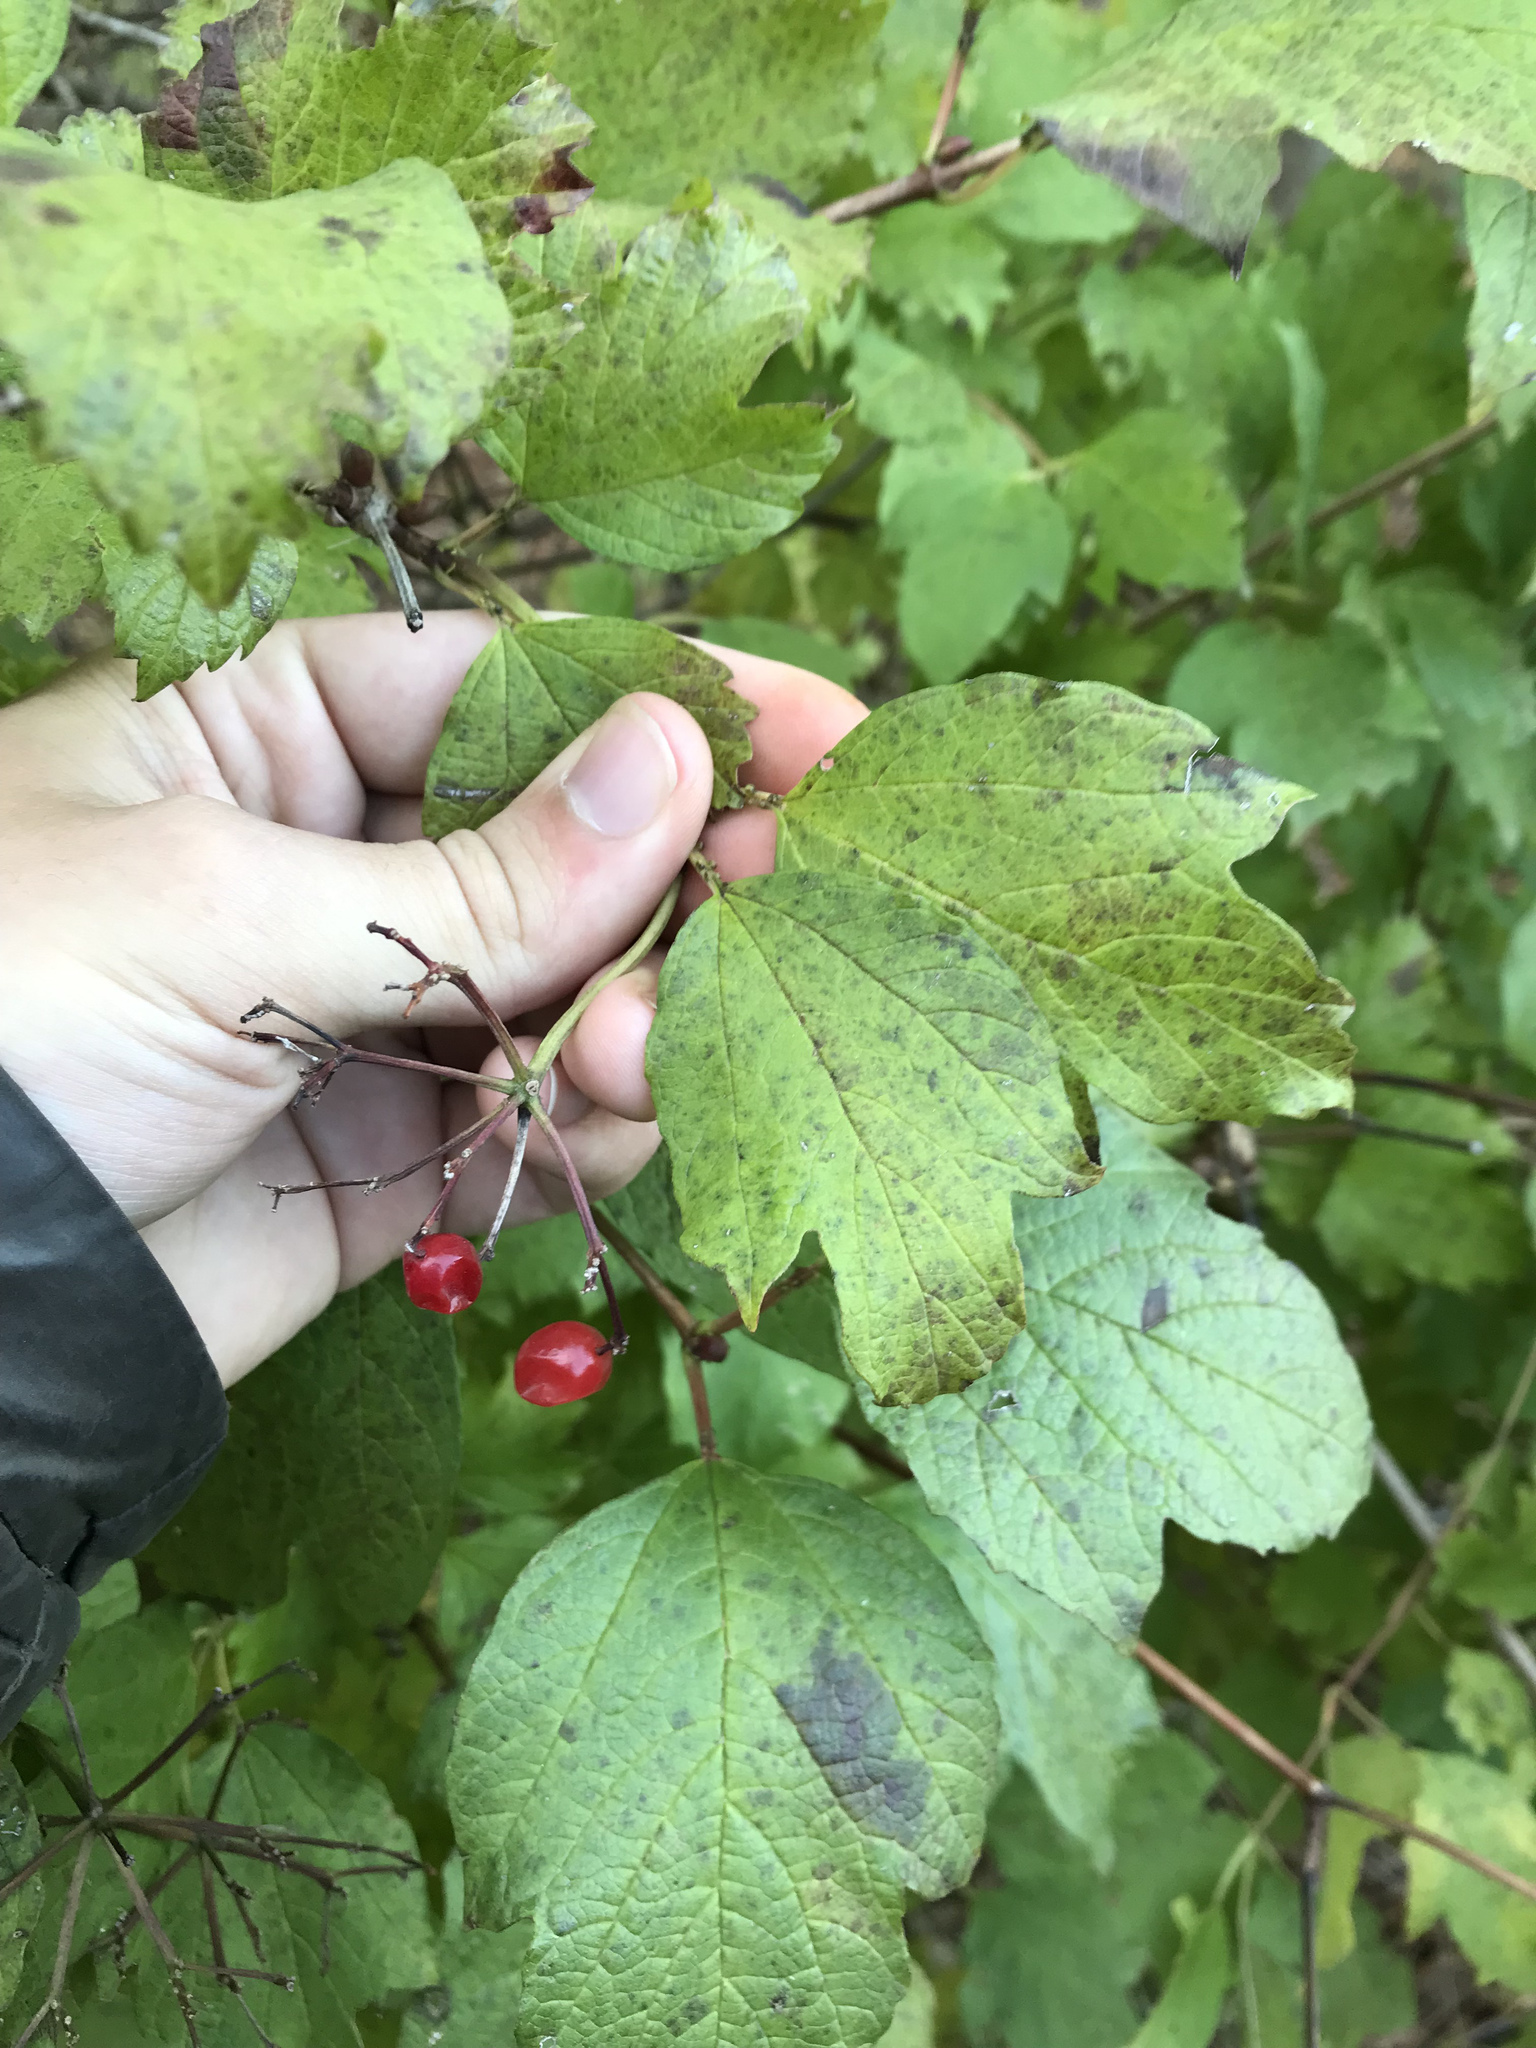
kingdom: Plantae
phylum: Tracheophyta
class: Magnoliopsida
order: Dipsacales
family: Viburnaceae
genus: Viburnum
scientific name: Viburnum opulus
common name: Guelder-rose
